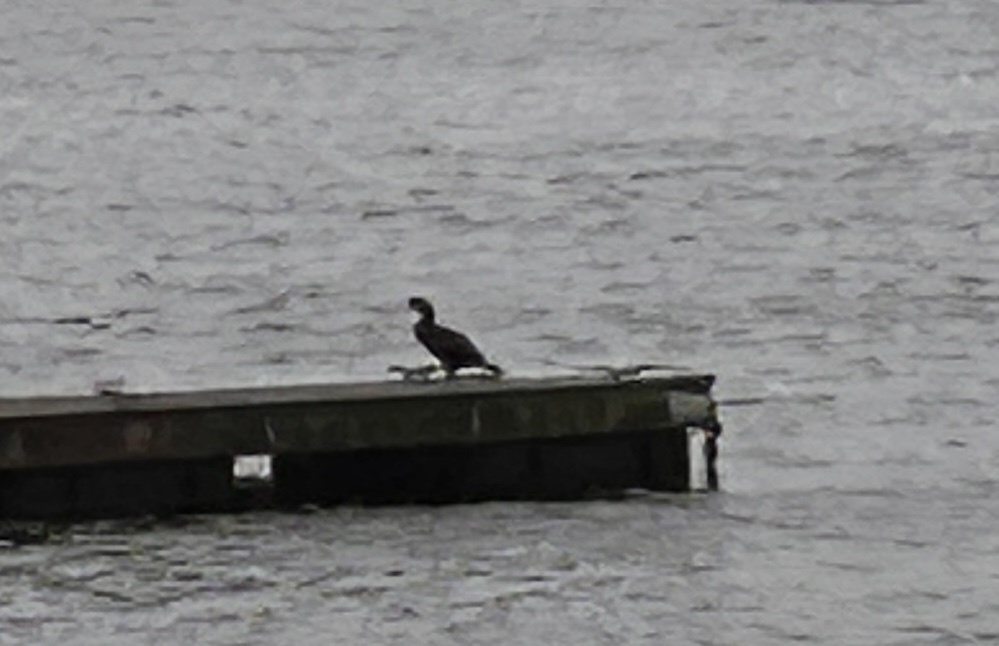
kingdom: Animalia
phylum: Chordata
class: Aves
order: Suliformes
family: Phalacrocoracidae
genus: Phalacrocorax
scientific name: Phalacrocorax auritus
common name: Double-crested cormorant
